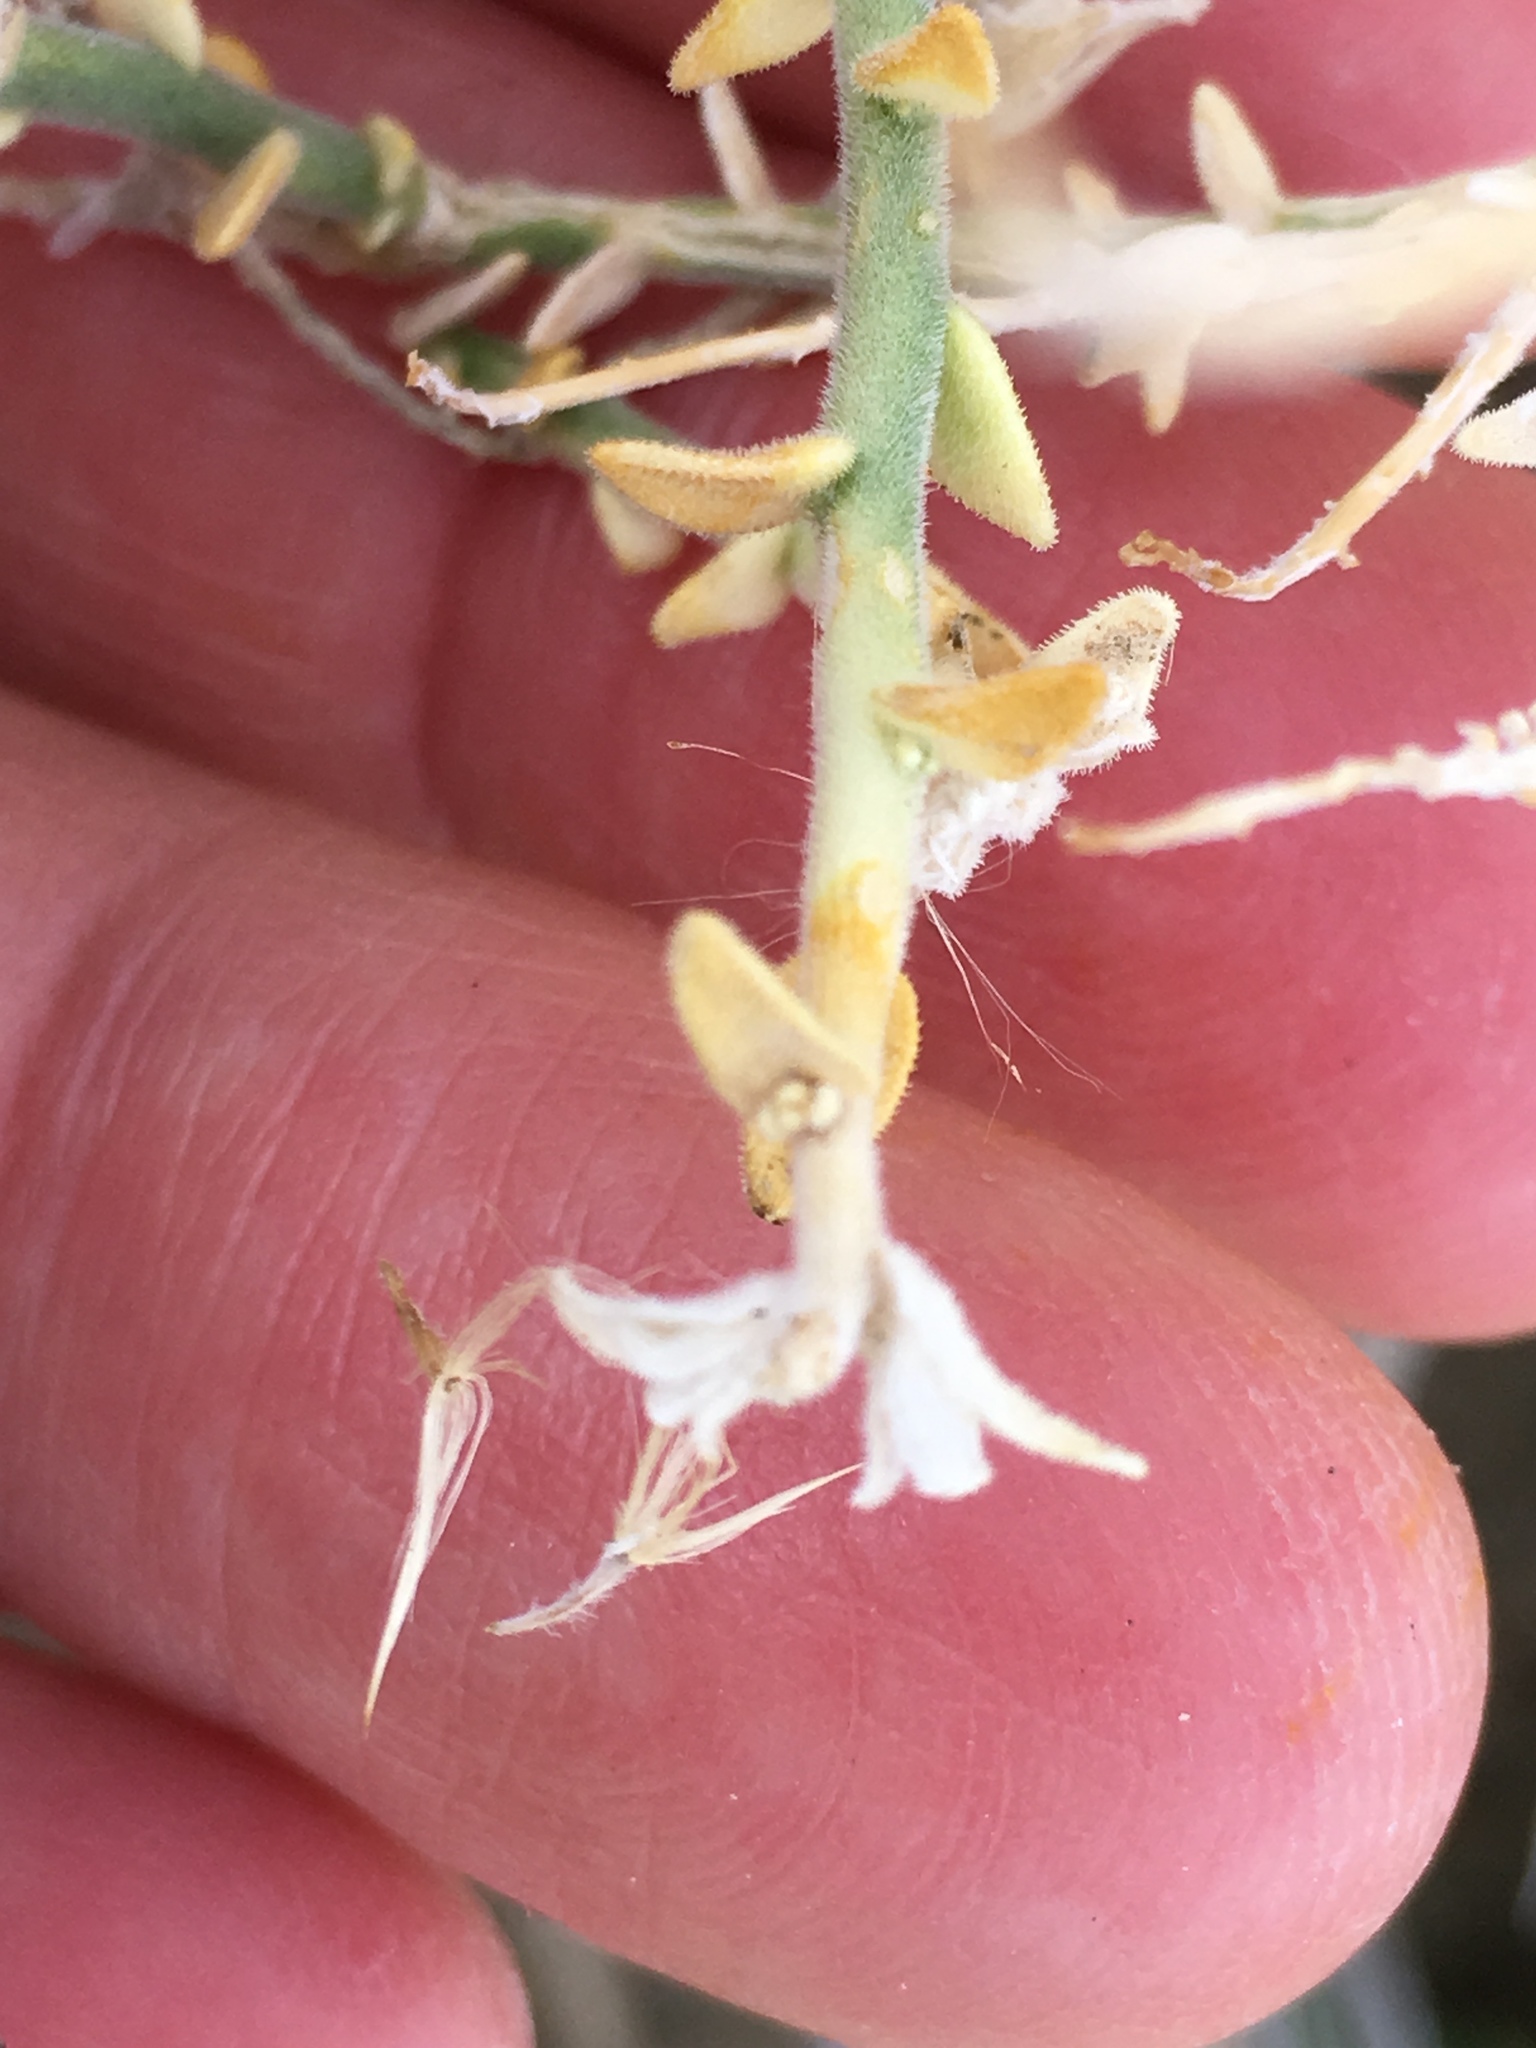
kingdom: Plantae
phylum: Tracheophyta
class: Magnoliopsida
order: Cornales
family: Loasaceae
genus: Petalonyx
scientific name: Petalonyx thurberi
